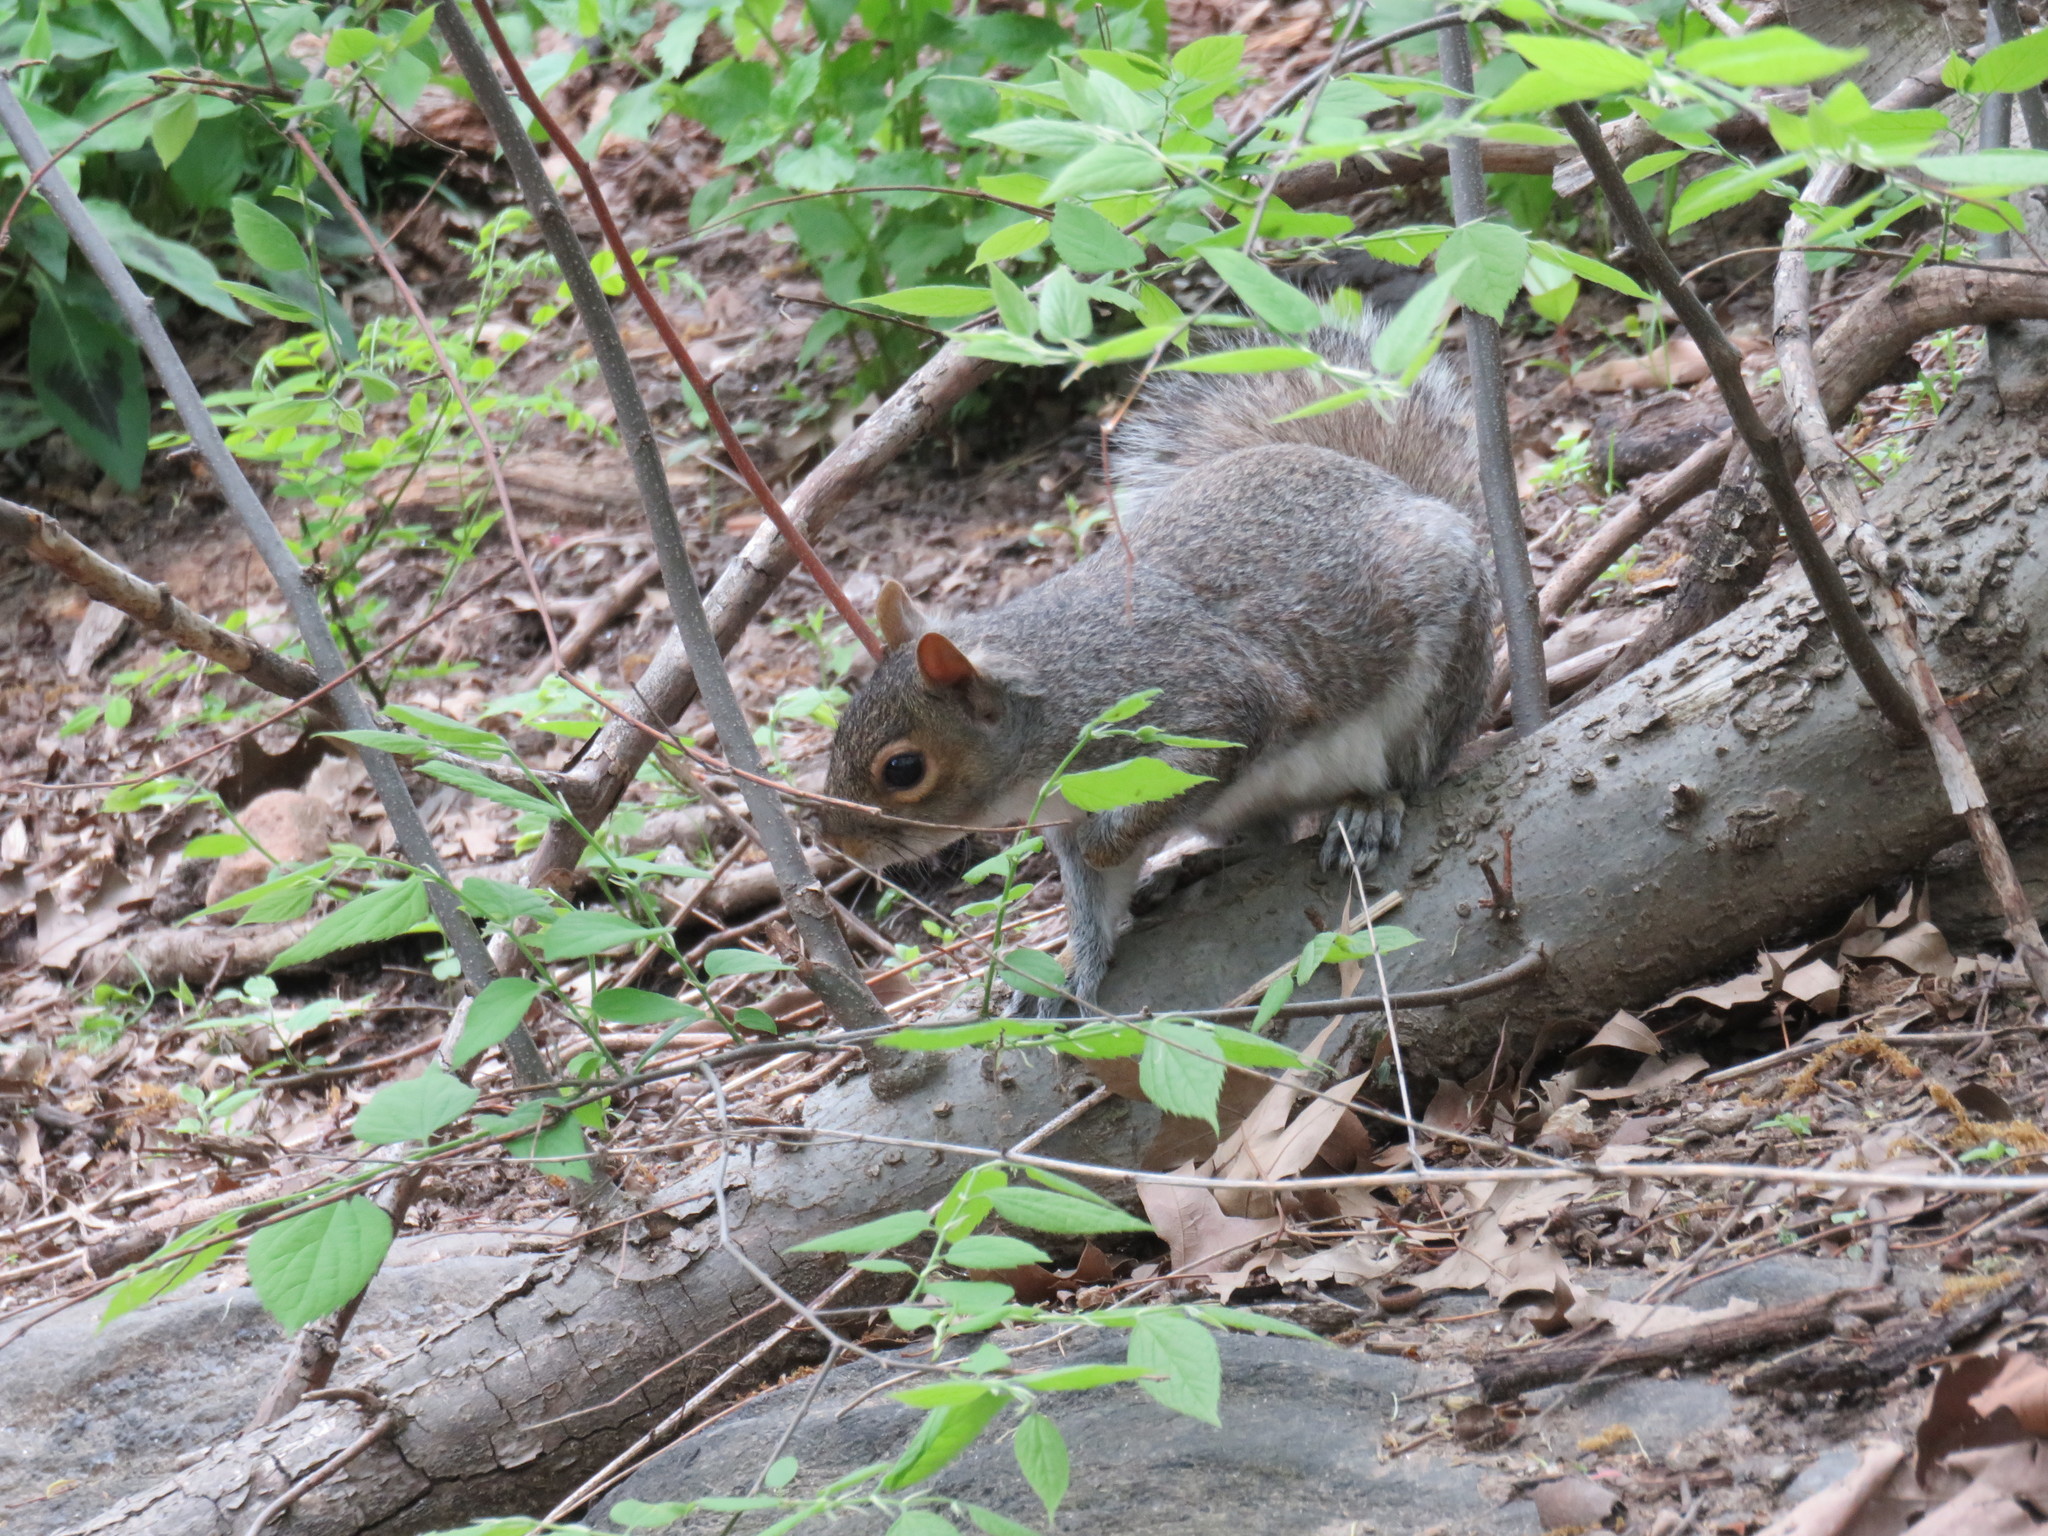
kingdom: Animalia
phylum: Chordata
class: Mammalia
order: Rodentia
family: Sciuridae
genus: Sciurus
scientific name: Sciurus carolinensis
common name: Eastern gray squirrel
